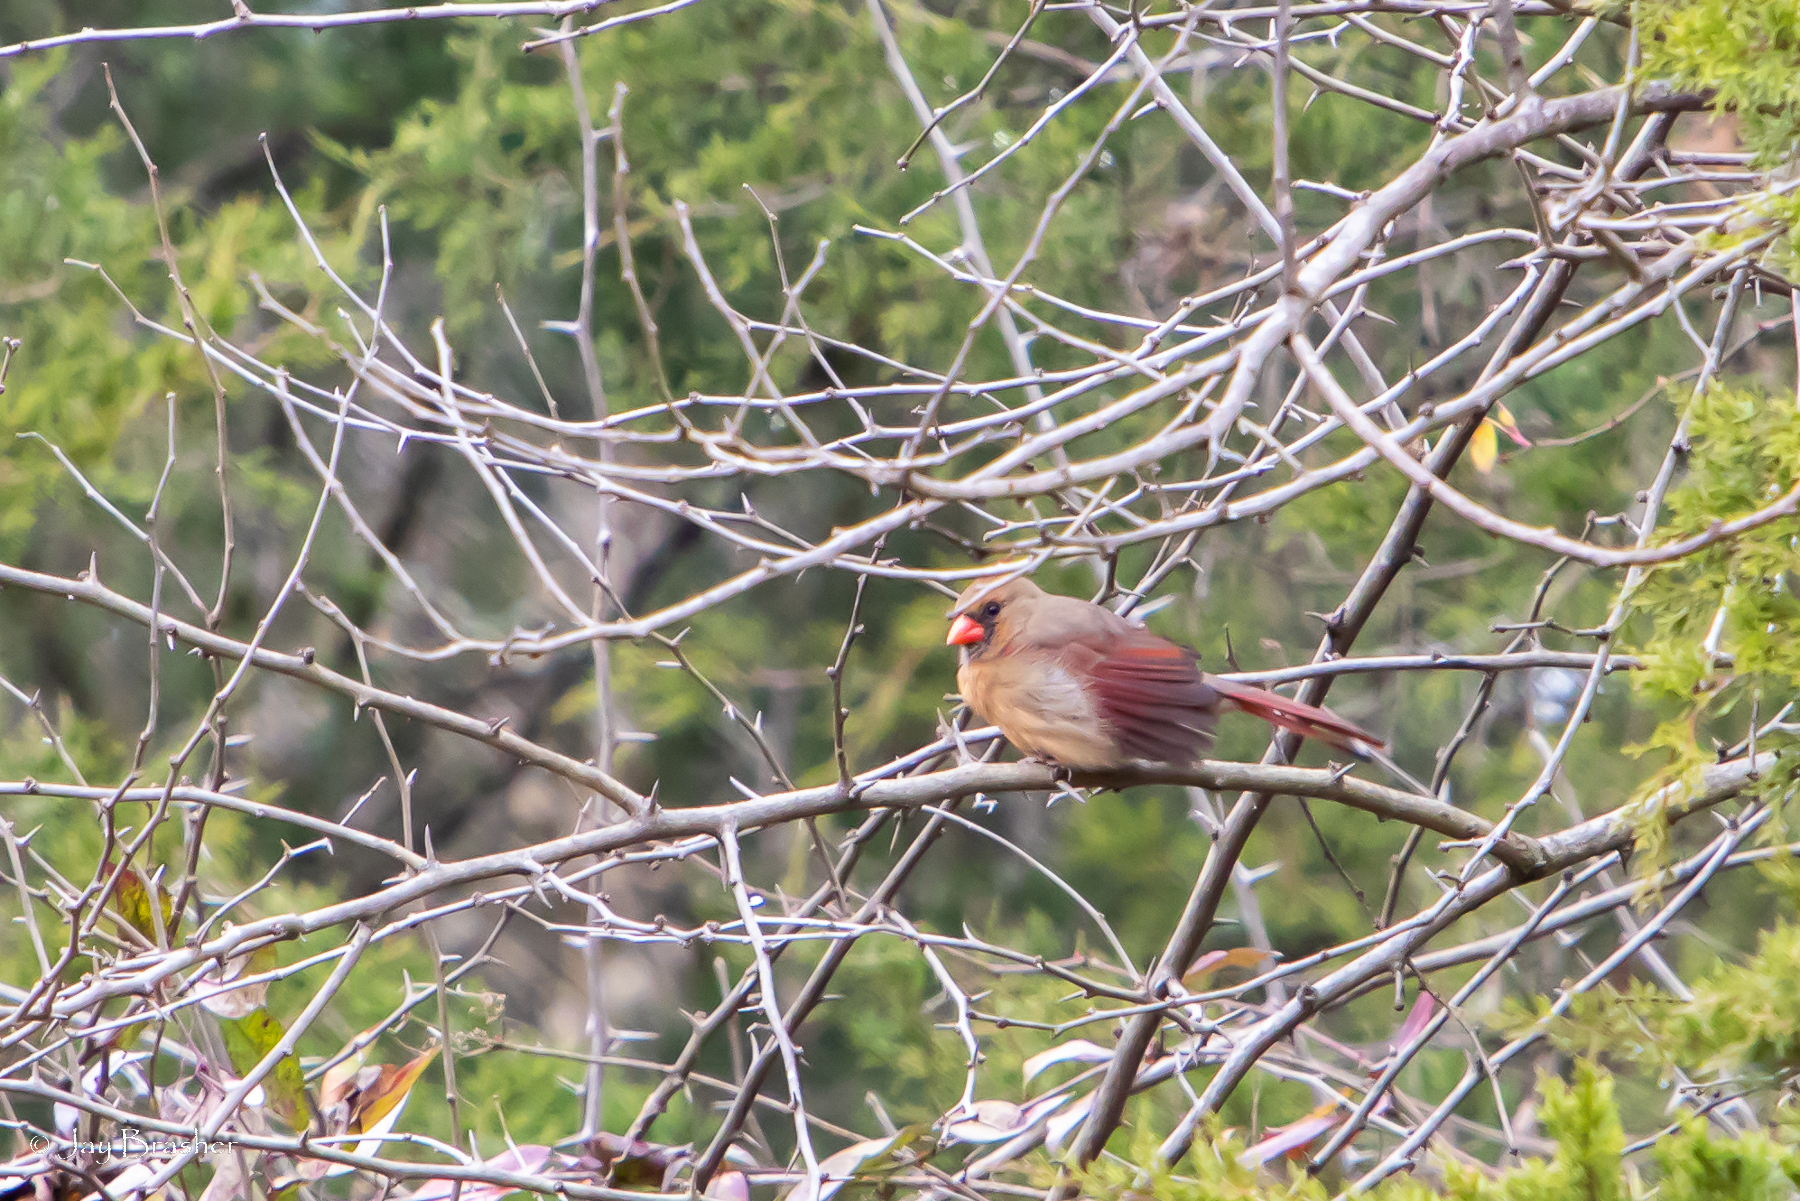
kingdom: Animalia
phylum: Chordata
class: Aves
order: Passeriformes
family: Cardinalidae
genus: Cardinalis
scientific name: Cardinalis cardinalis
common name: Northern cardinal
